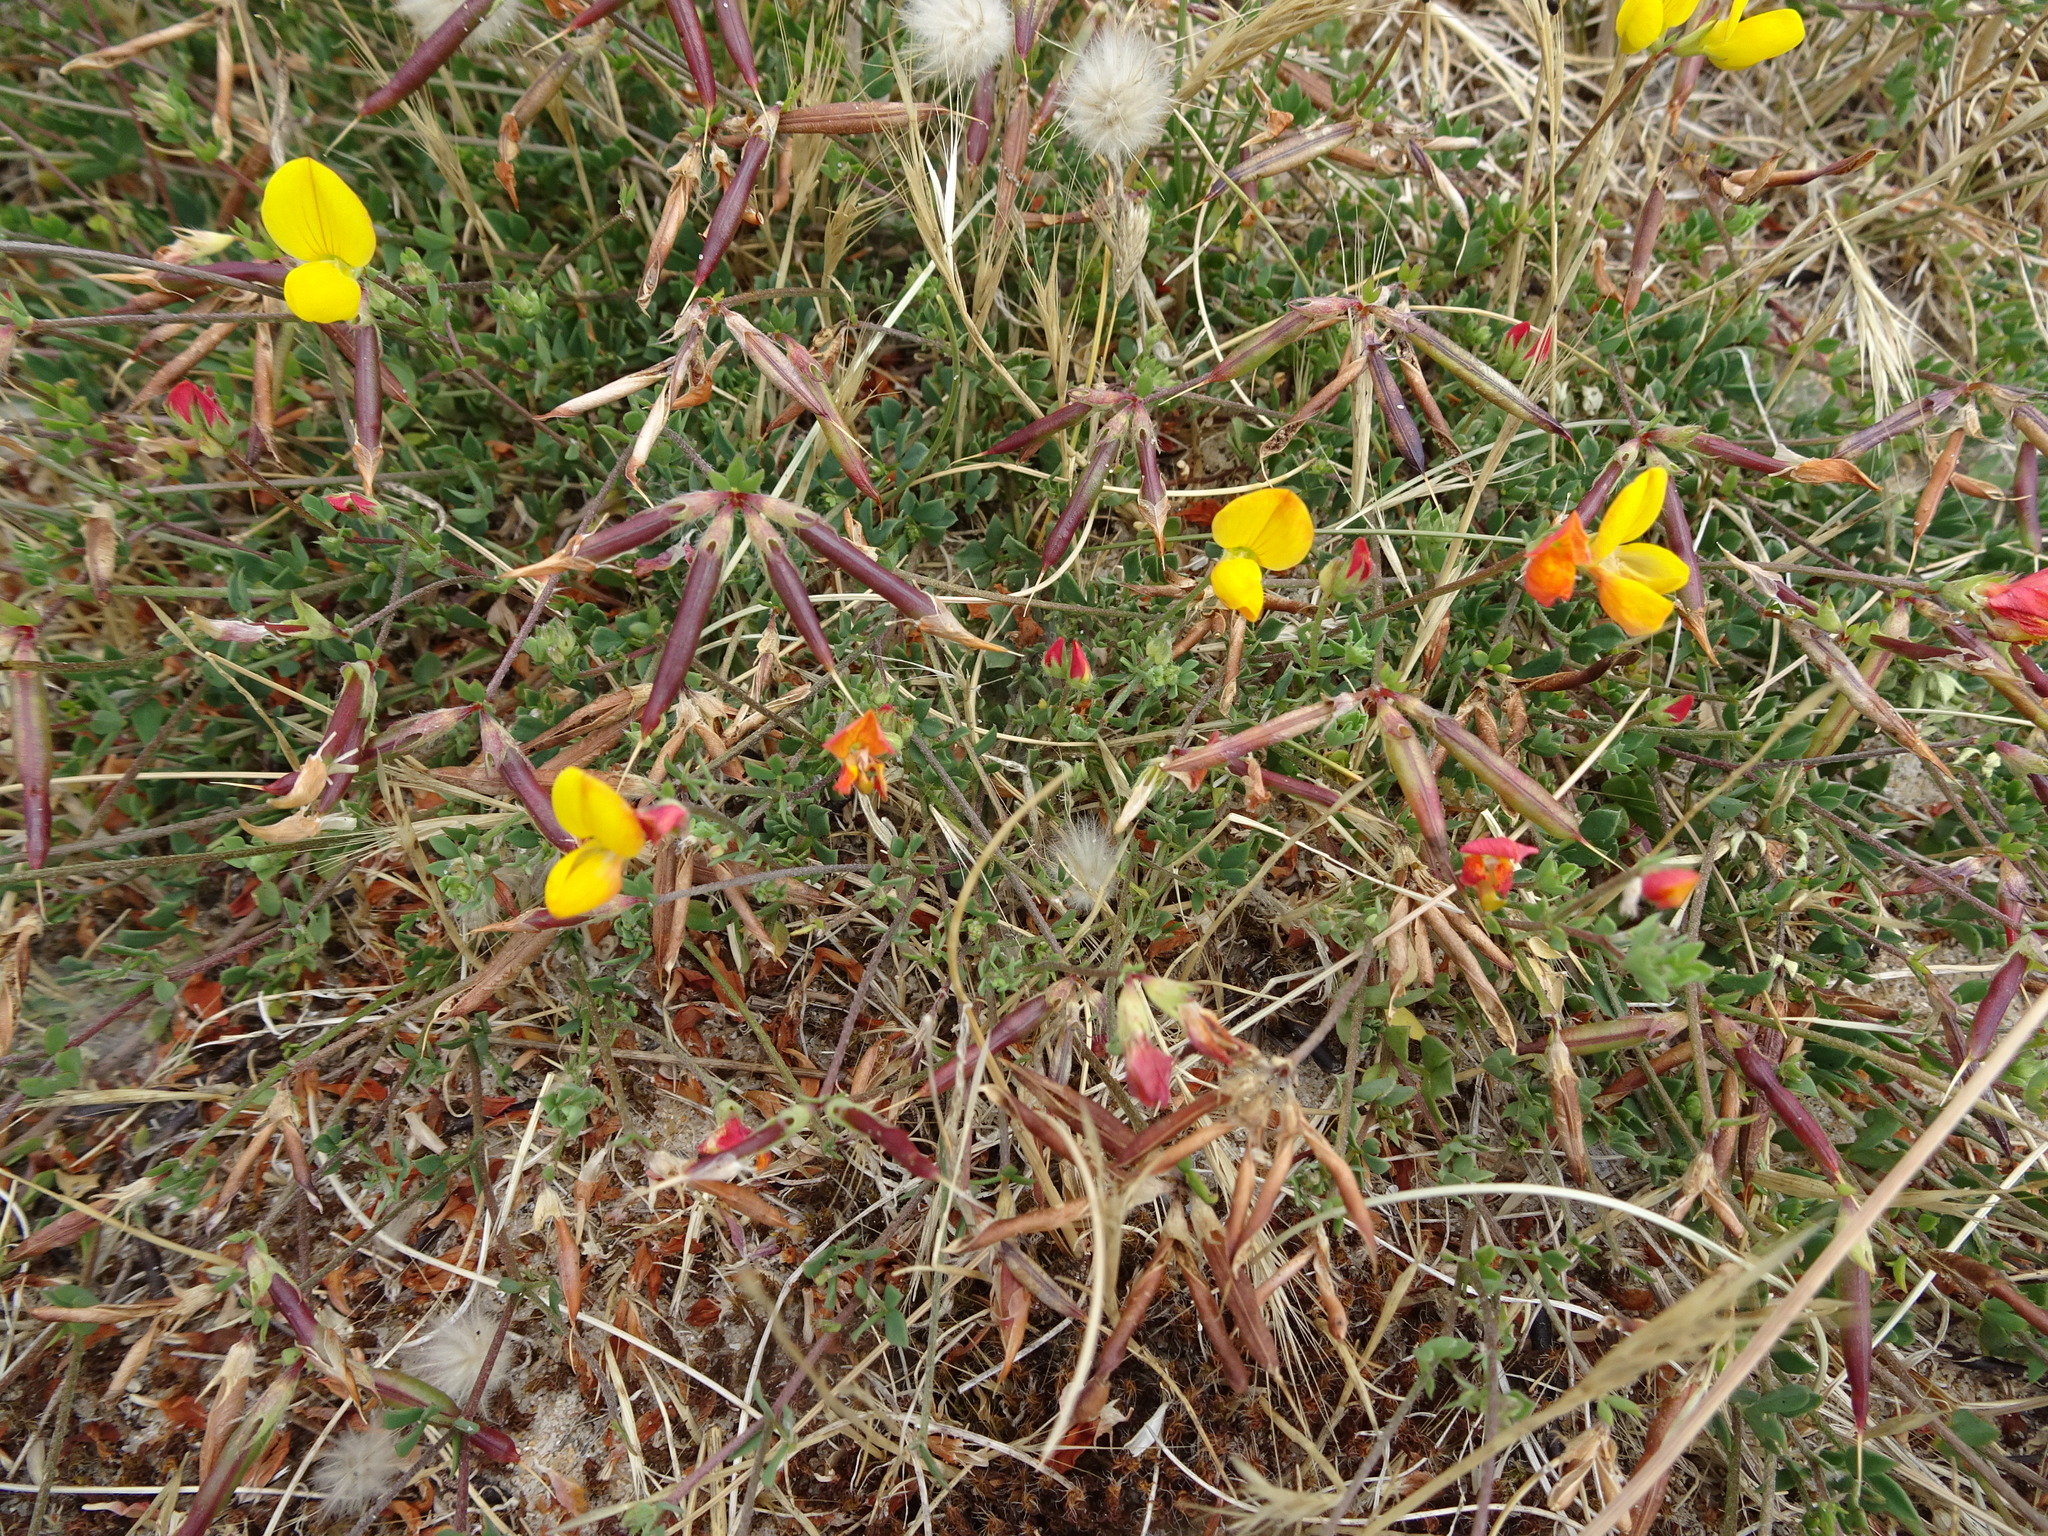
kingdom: Plantae
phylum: Tracheophyta
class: Magnoliopsida
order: Fabales
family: Fabaceae
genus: Lotus
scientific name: Lotus corniculatus
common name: Common bird's-foot-trefoil
